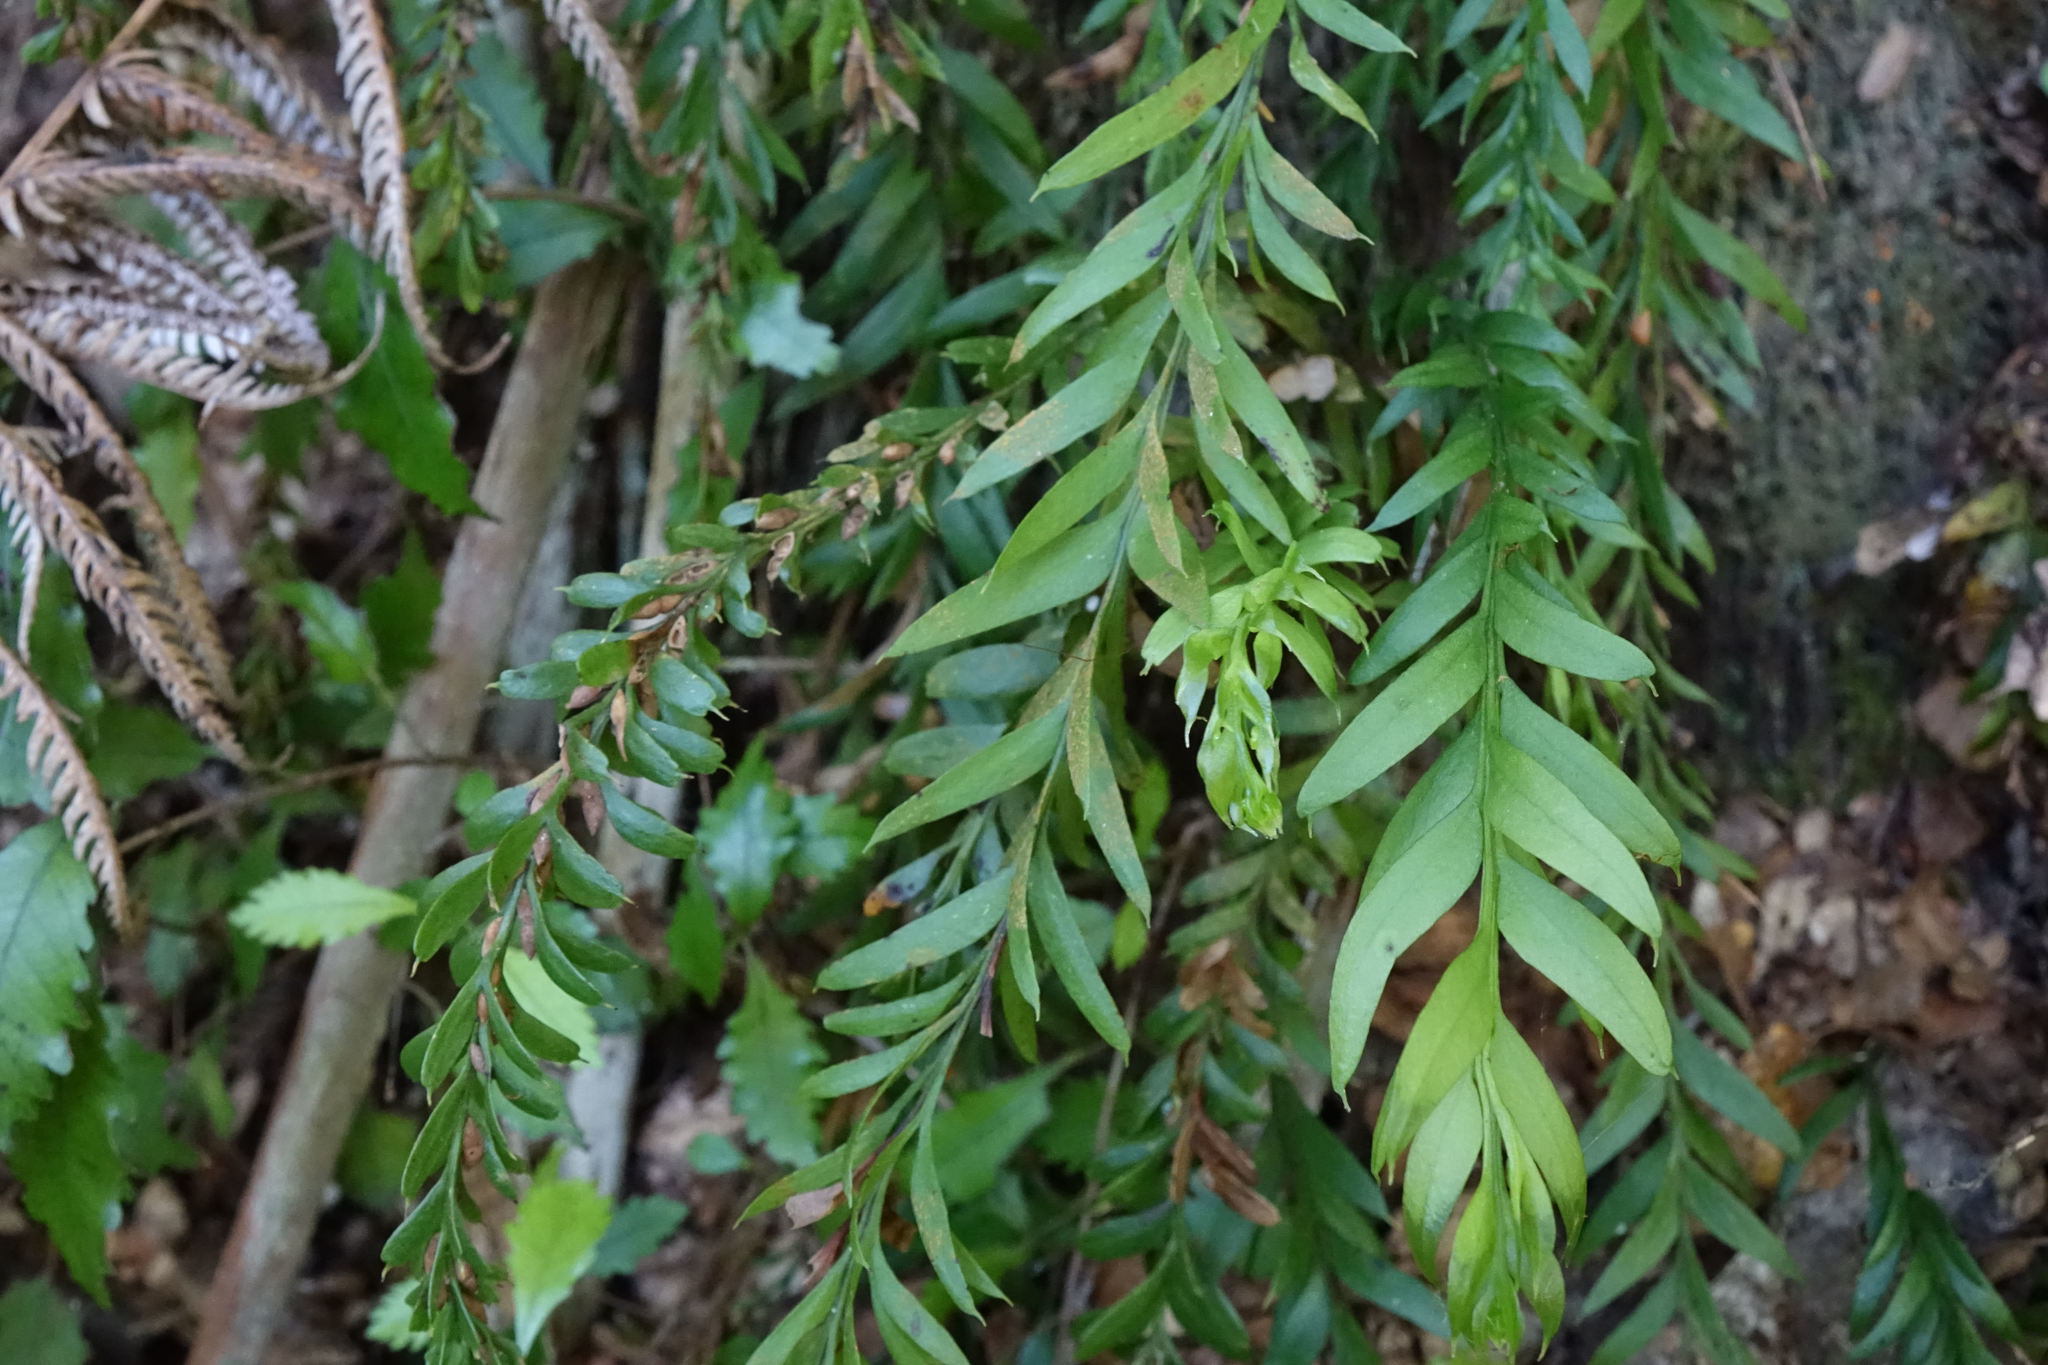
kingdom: Plantae
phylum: Tracheophyta
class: Polypodiopsida
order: Psilotales
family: Psilotaceae
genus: Tmesipteris
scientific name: Tmesipteris elongata
